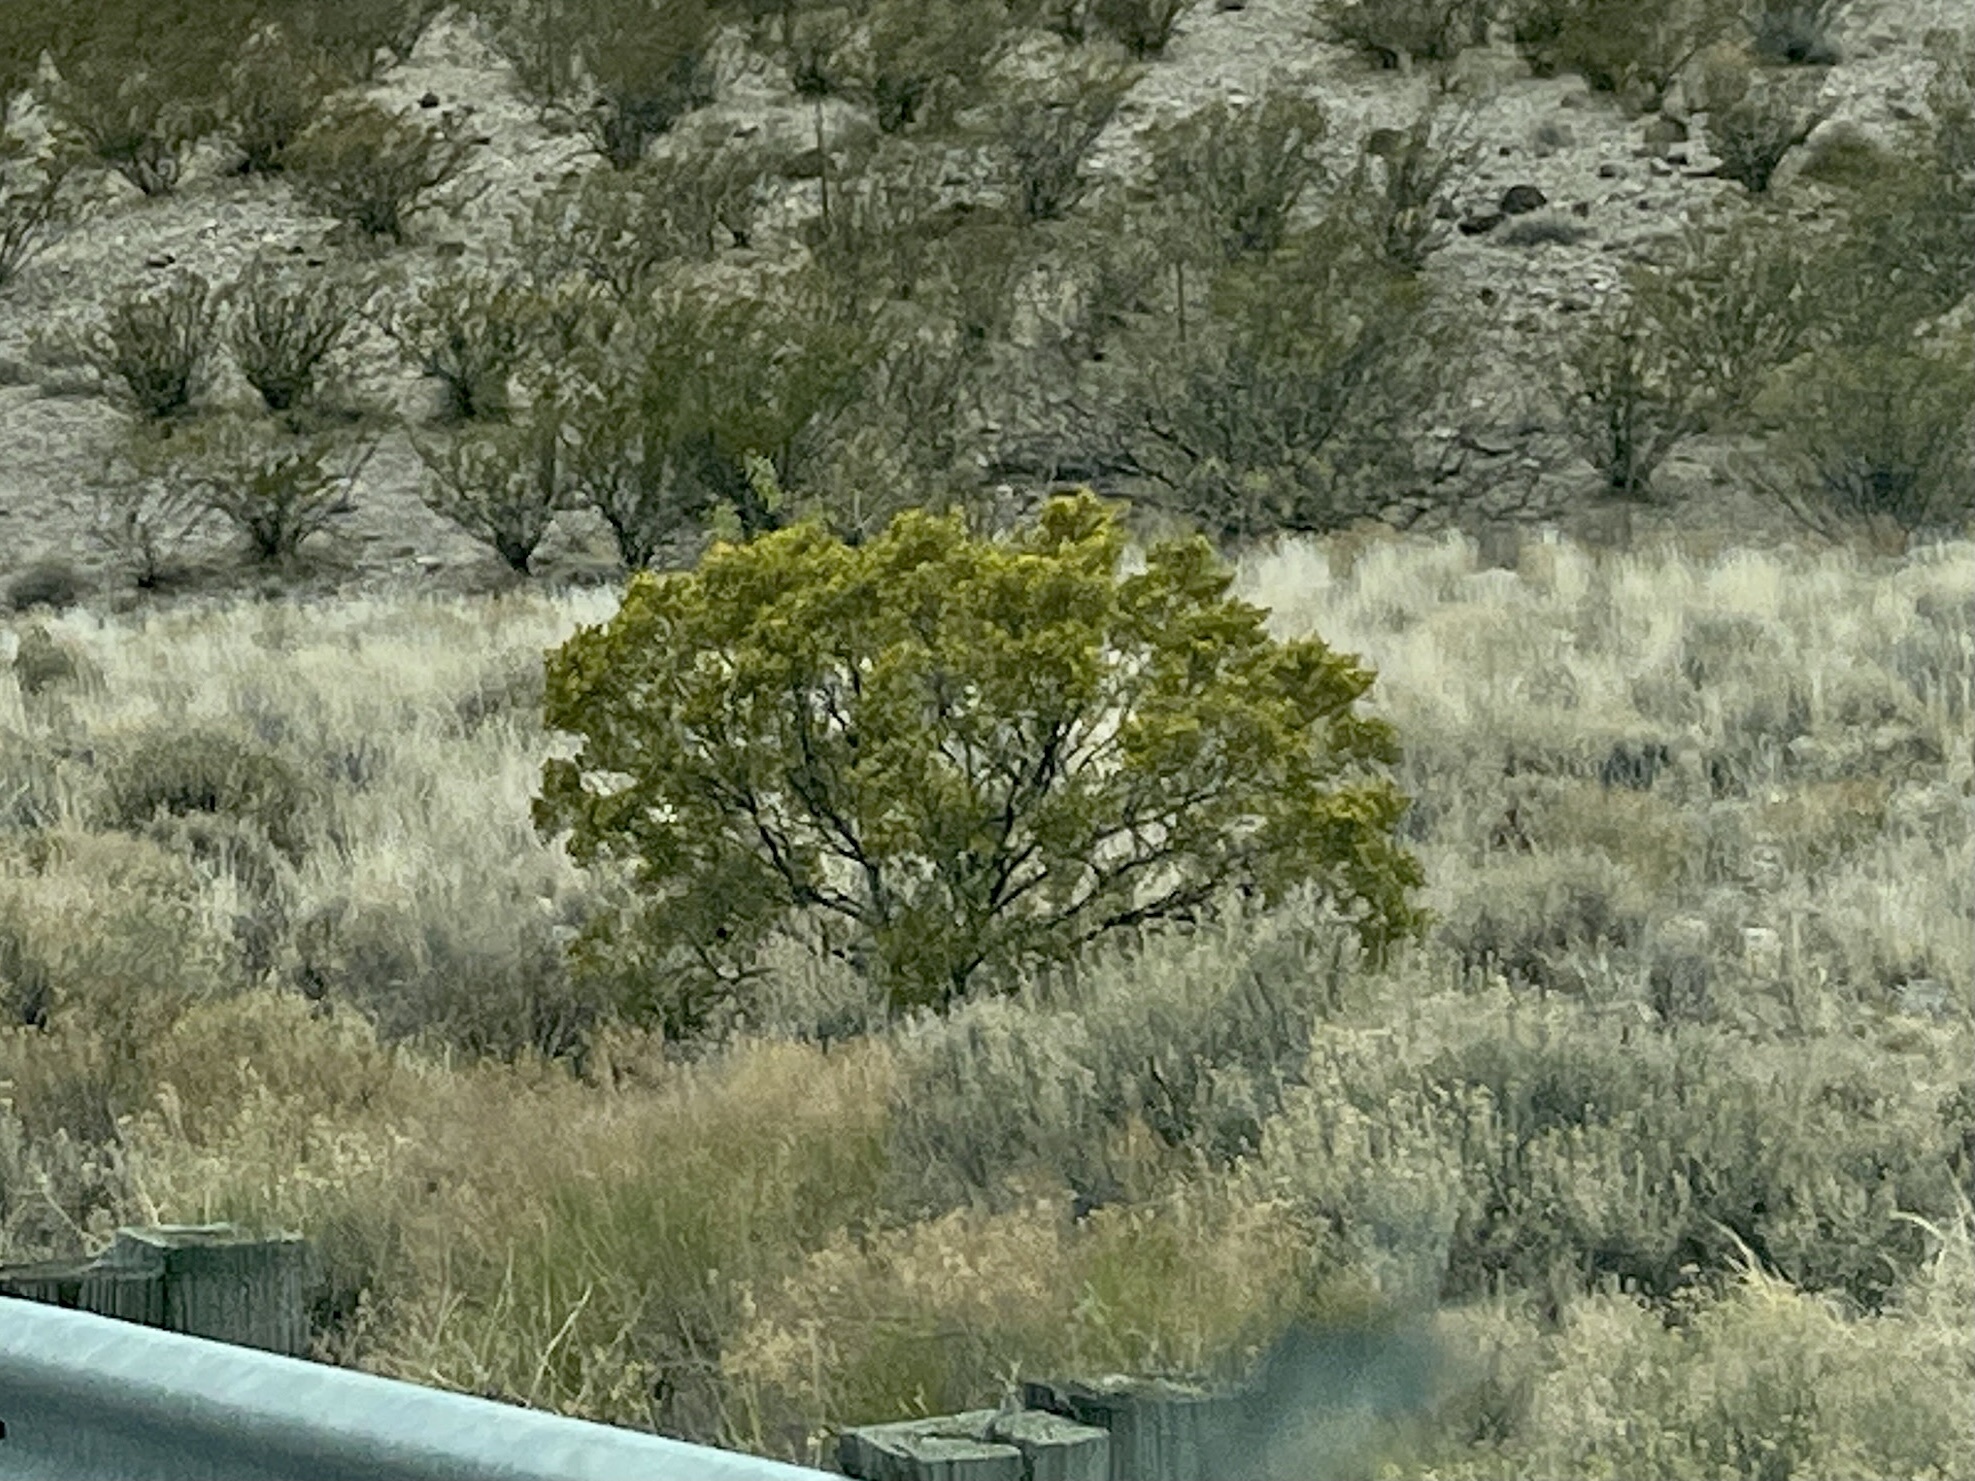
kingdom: Plantae
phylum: Tracheophyta
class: Magnoliopsida
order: Zygophyllales
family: Zygophyllaceae
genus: Larrea
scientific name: Larrea tridentata
